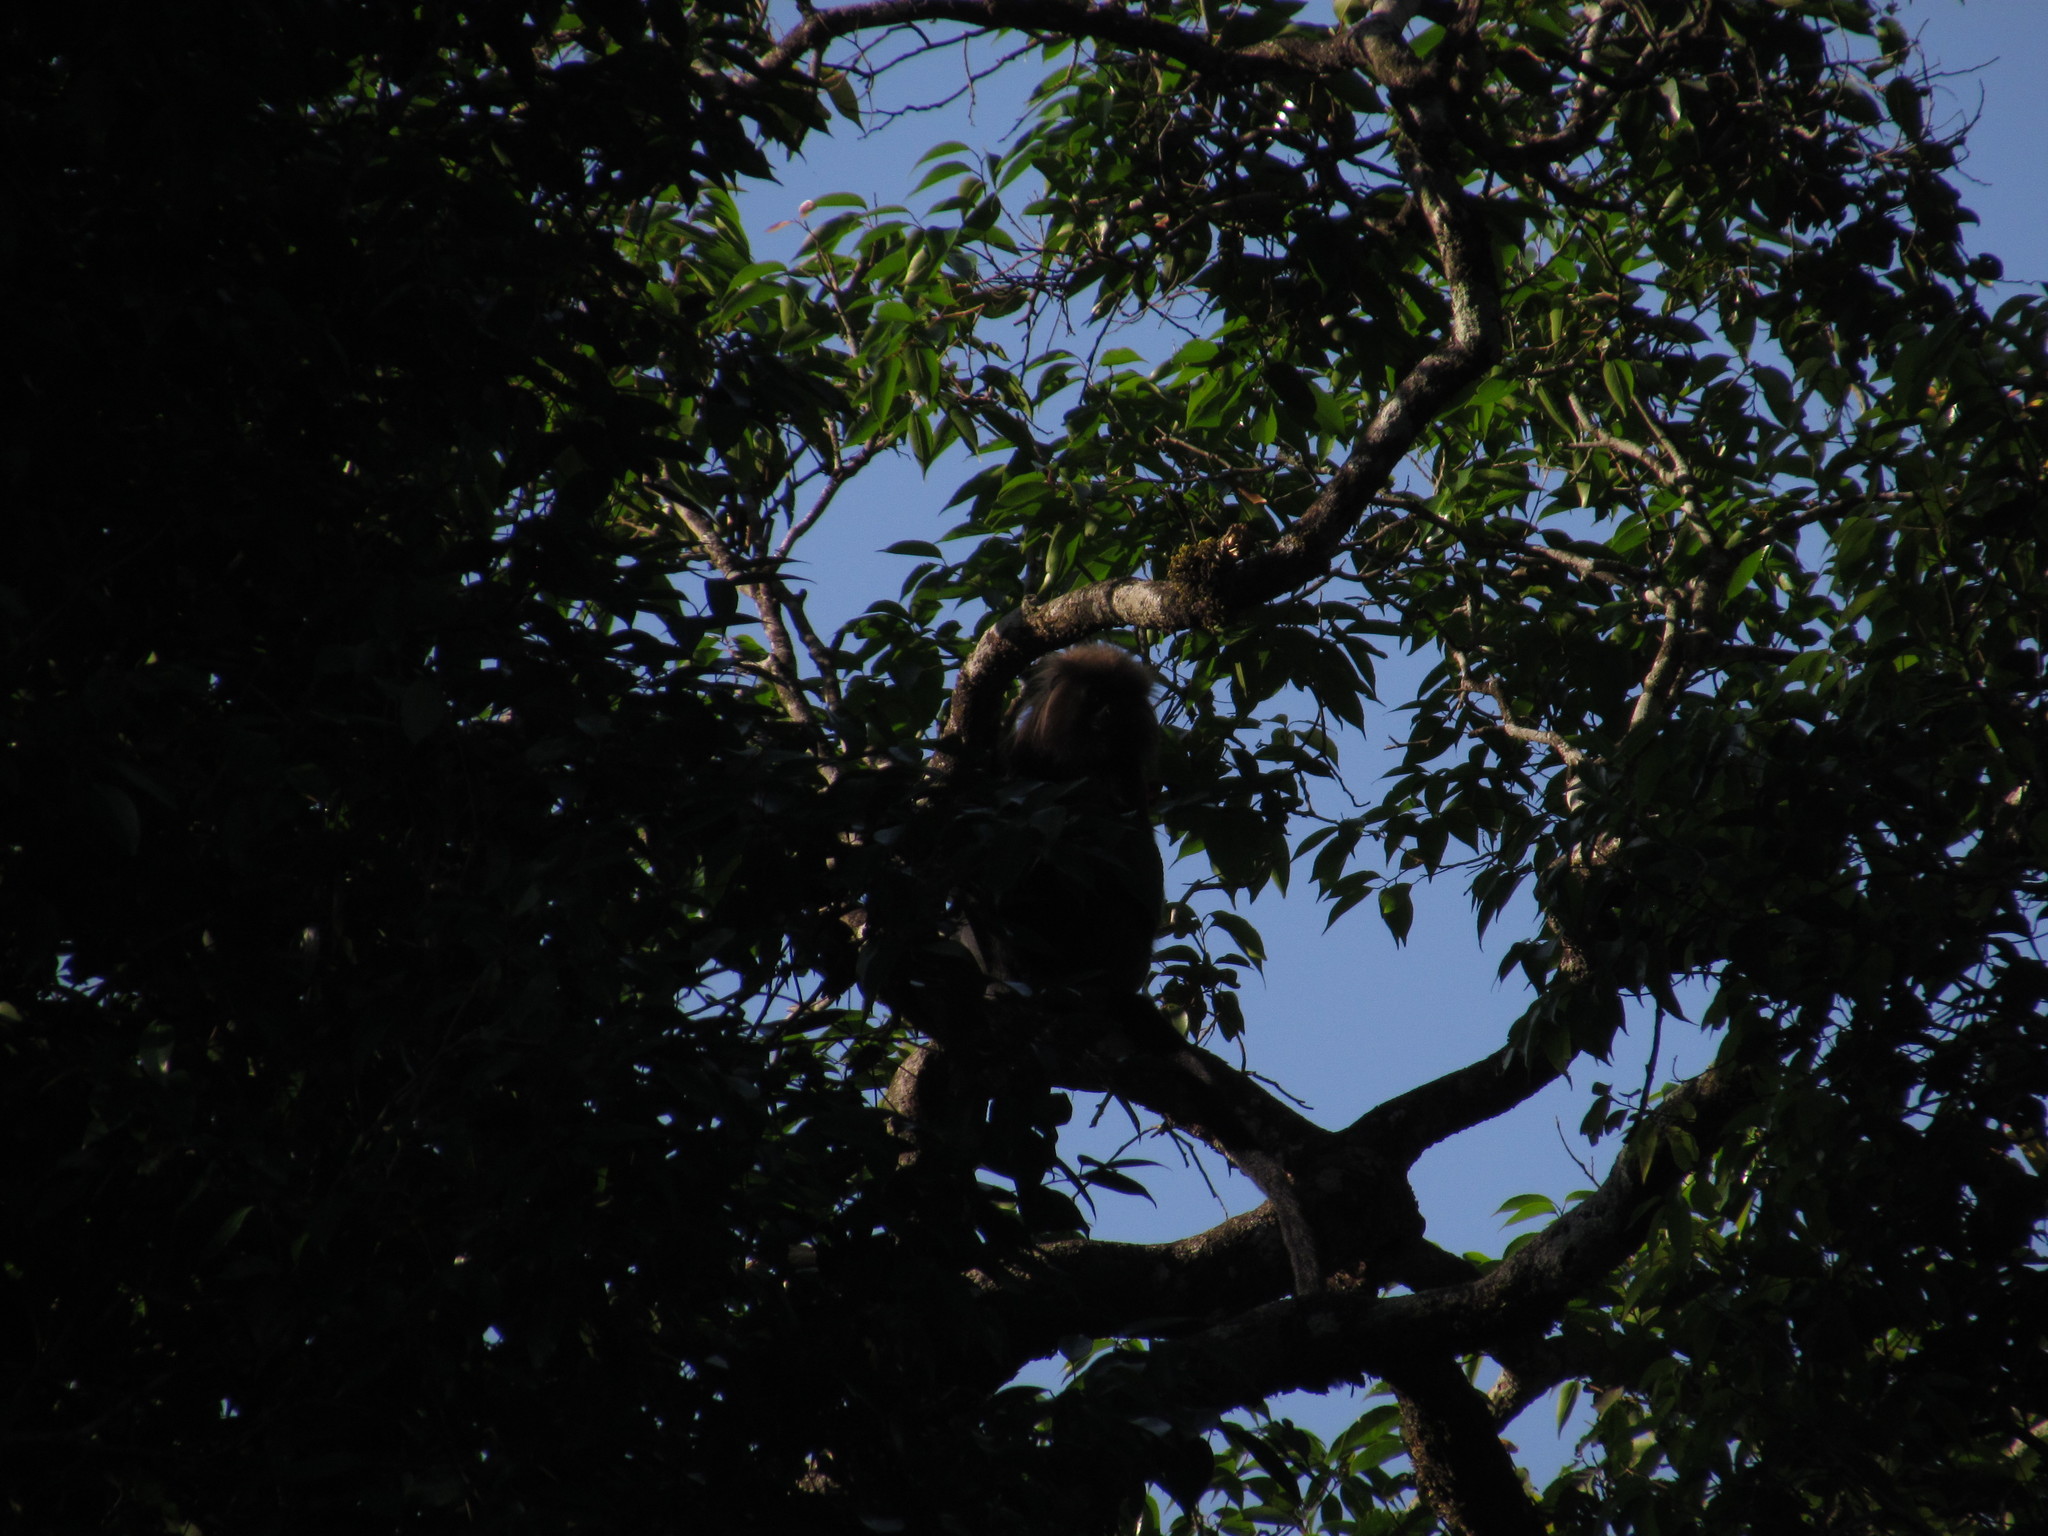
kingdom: Animalia
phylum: Chordata
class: Mammalia
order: Primates
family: Cercopithecidae
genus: Semnopithecus
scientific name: Semnopithecus johnii
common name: Nilgiri langur
